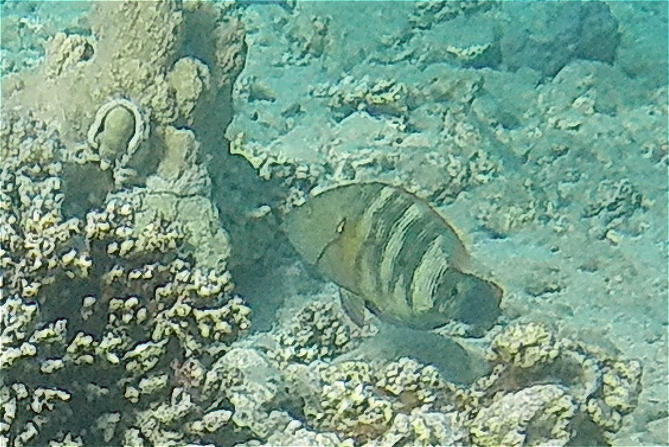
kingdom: Animalia
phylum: Chordata
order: Perciformes
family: Labridae
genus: Cheilinus
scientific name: Cheilinus lunulatus
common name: Broomtail wrasse
